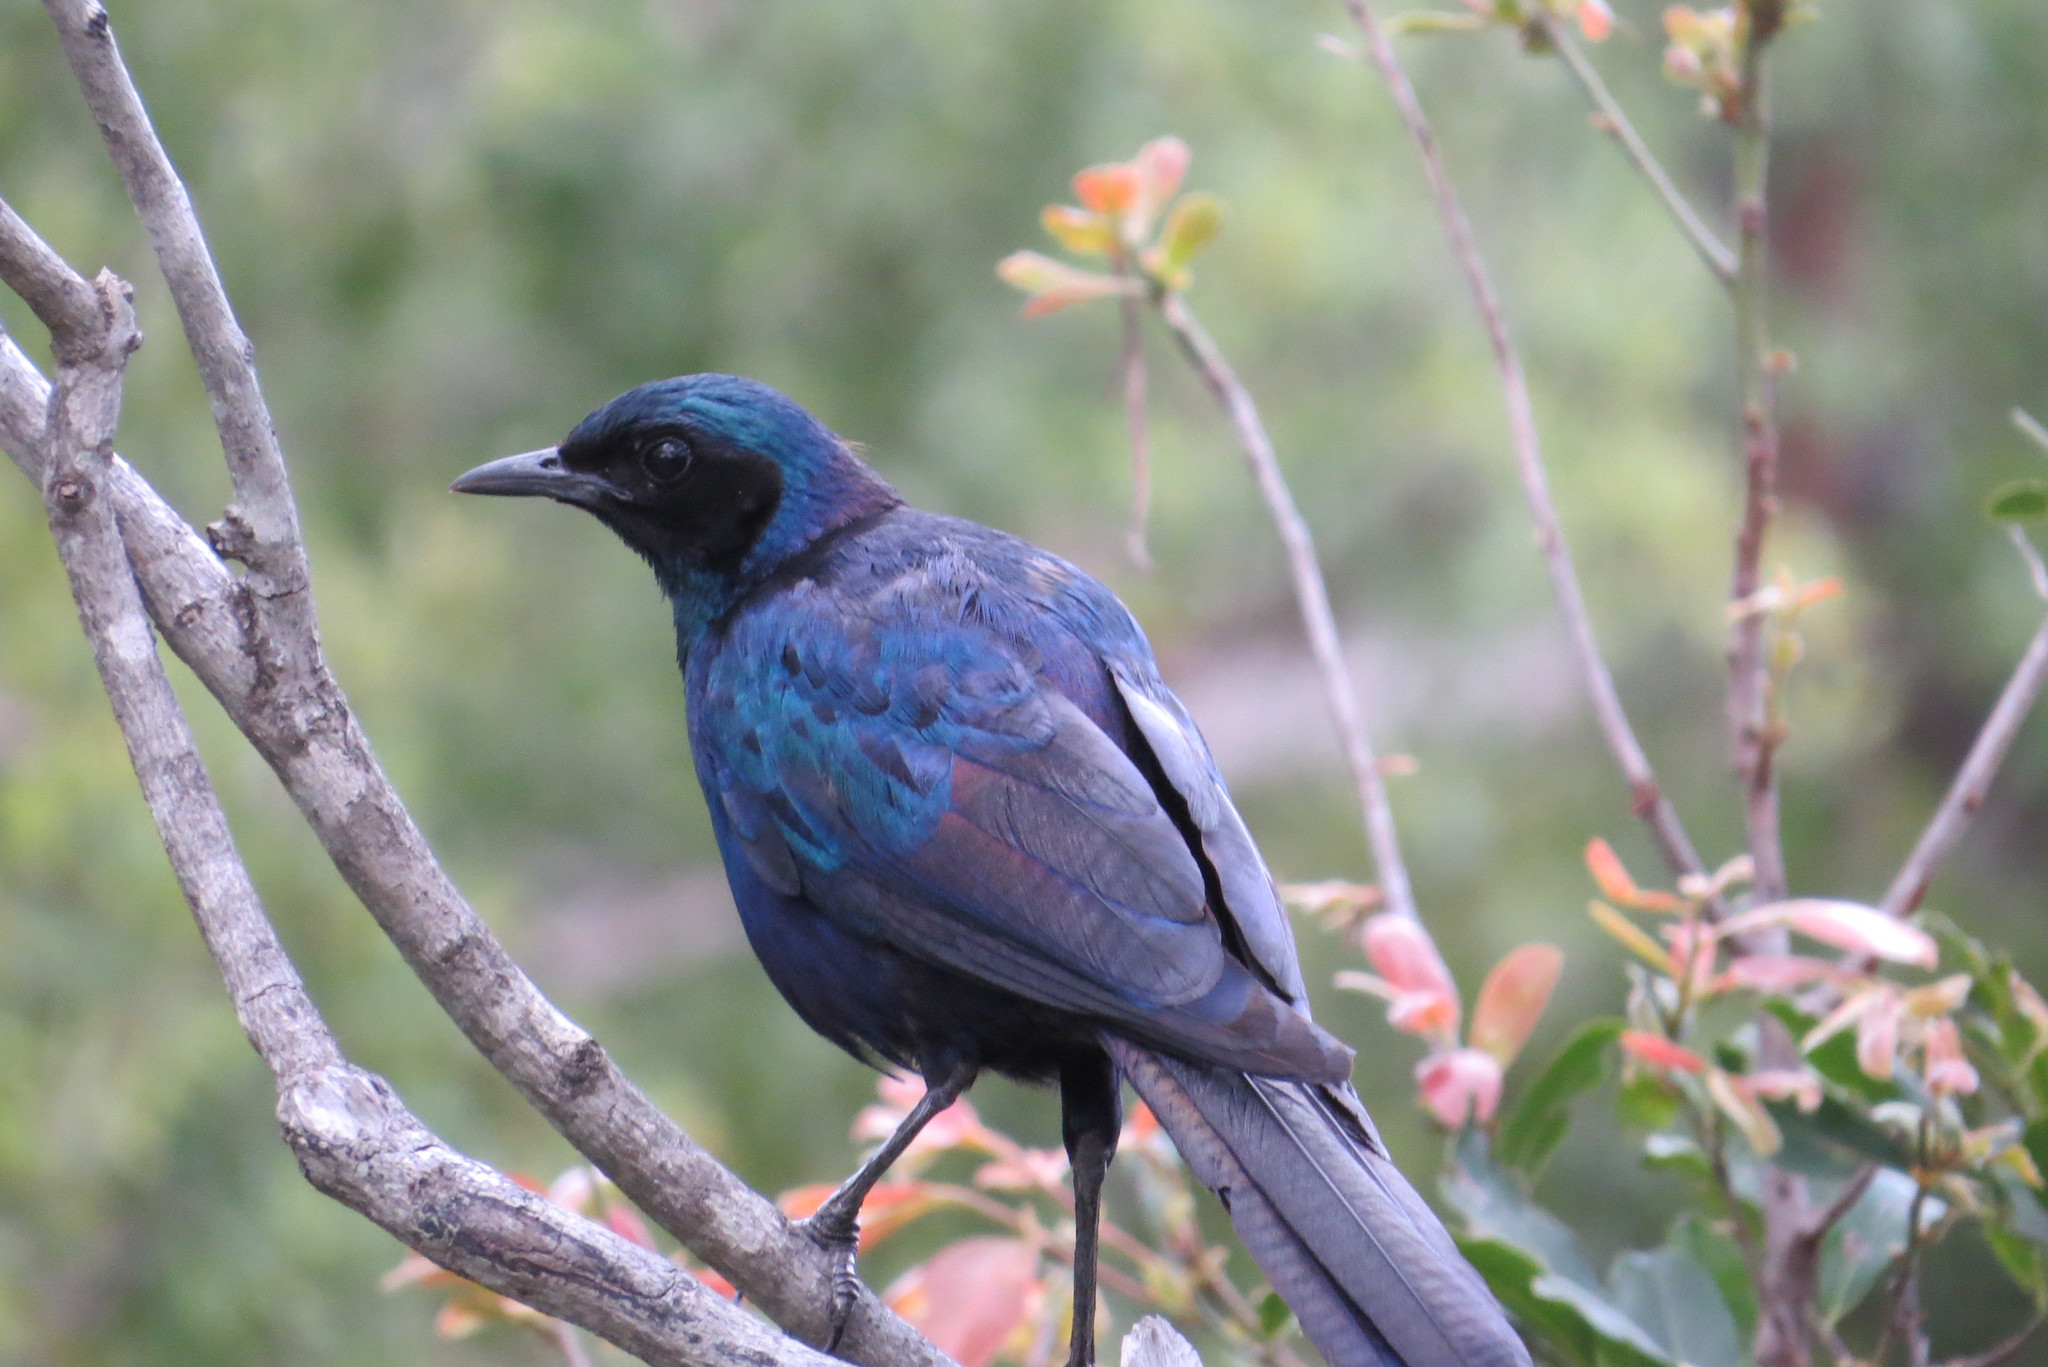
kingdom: Animalia
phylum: Chordata
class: Aves
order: Passeriformes
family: Sturnidae
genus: Lamprotornis
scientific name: Lamprotornis australis
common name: Burchell's starling
